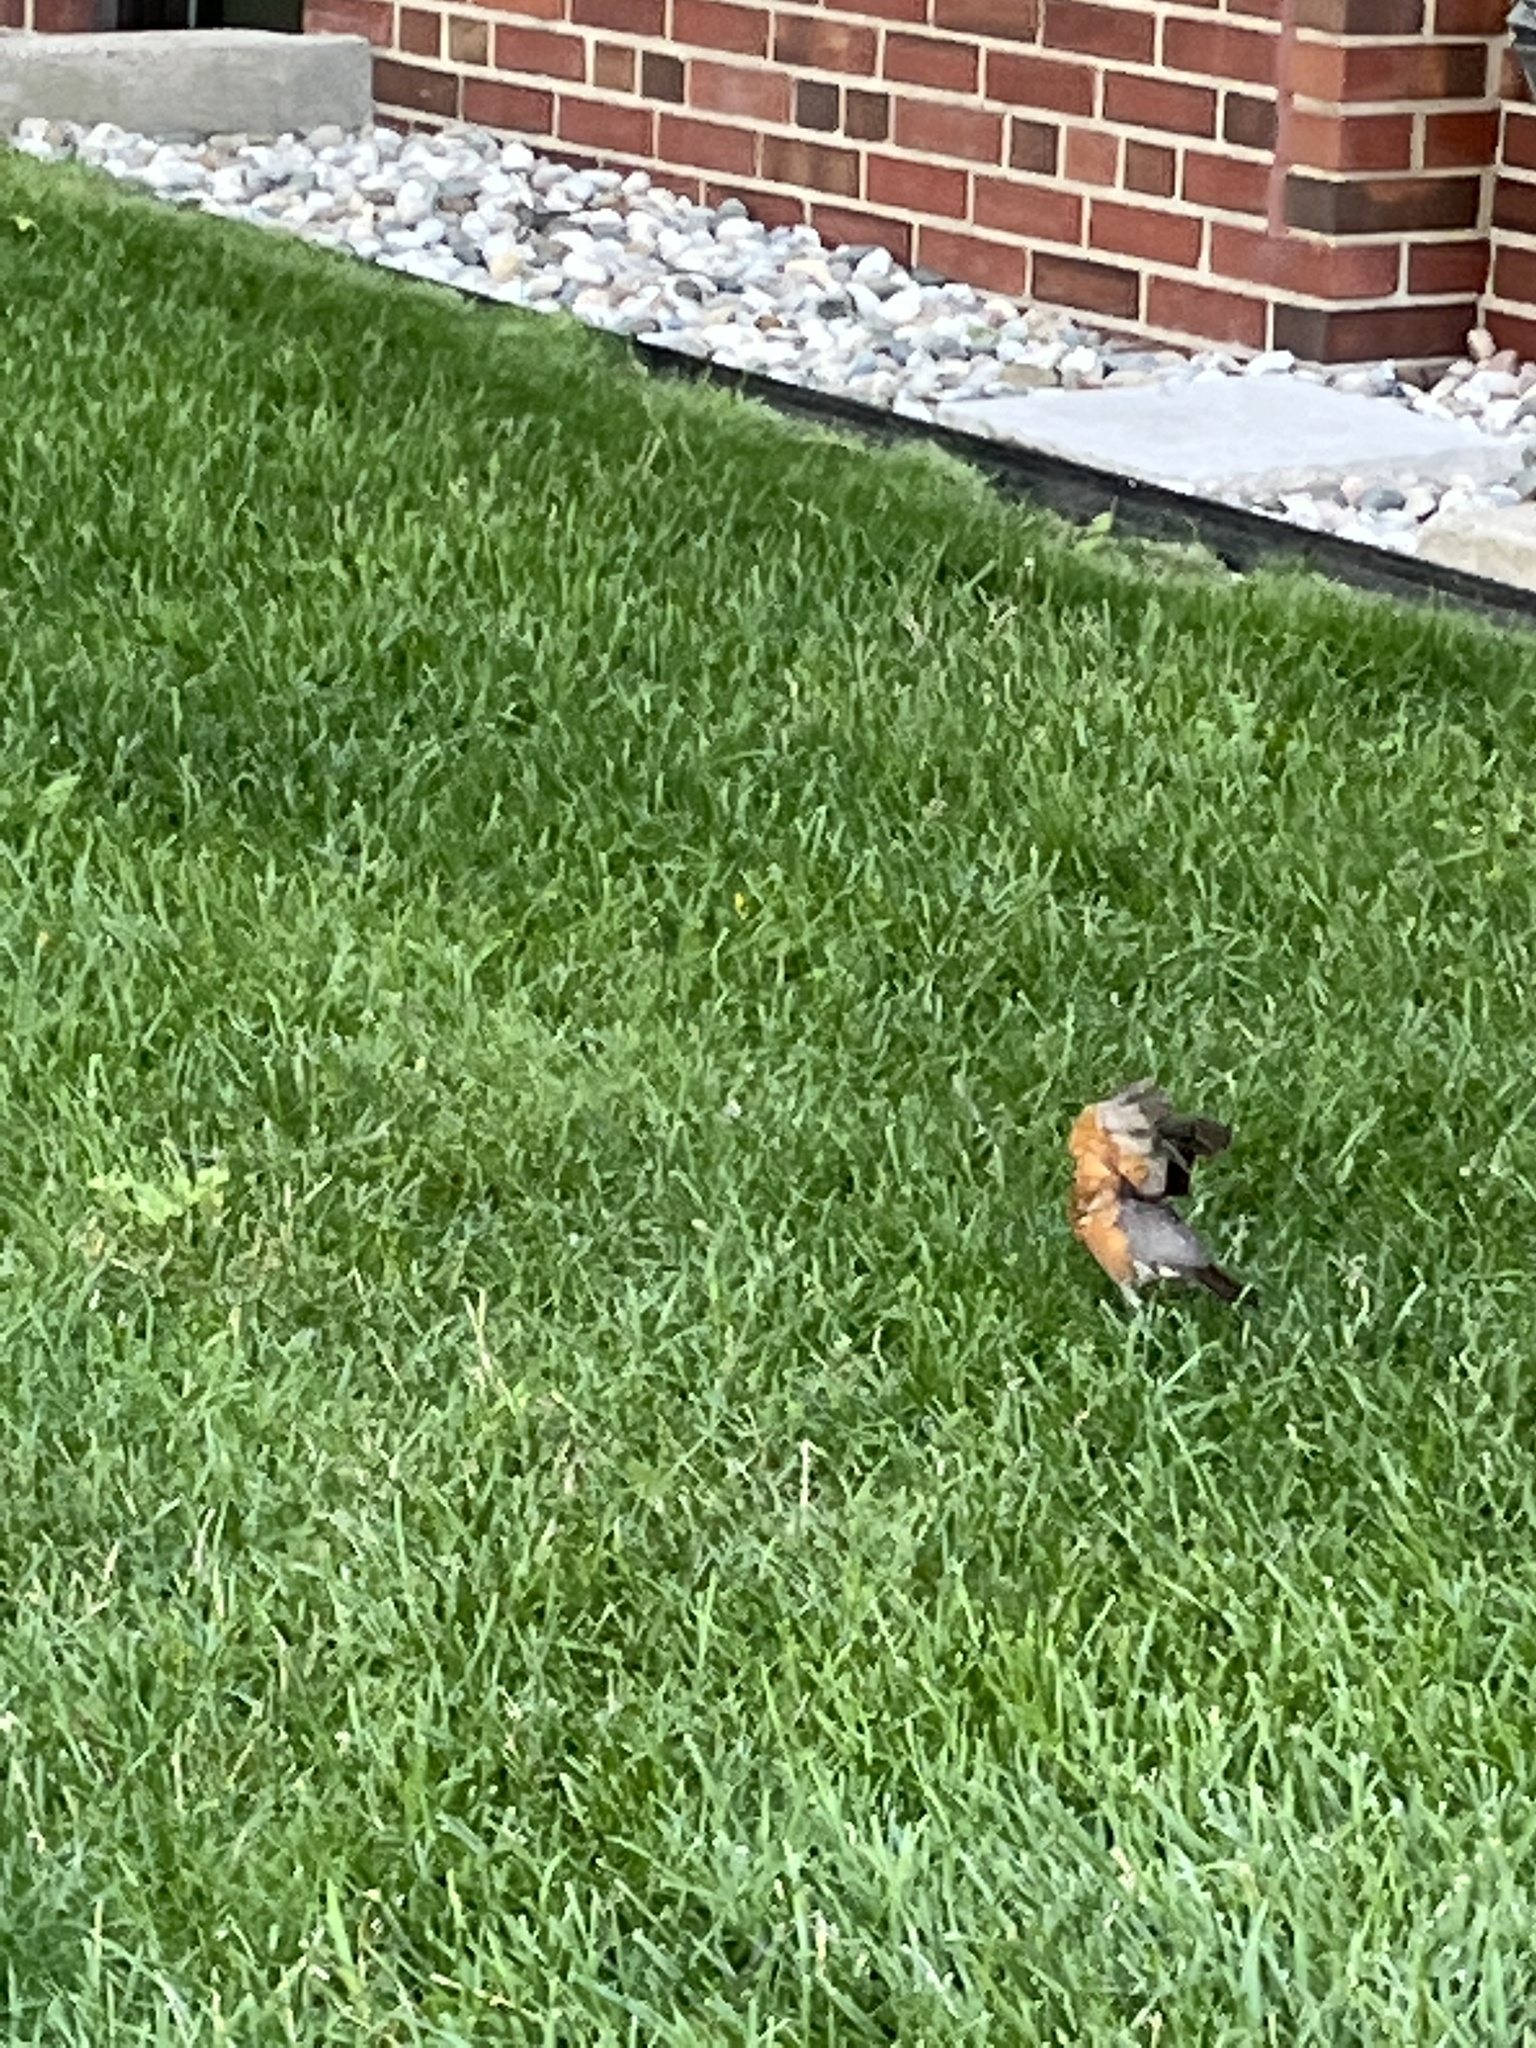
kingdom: Animalia
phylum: Chordata
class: Aves
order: Passeriformes
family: Turdidae
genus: Turdus
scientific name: Turdus migratorius
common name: American robin
